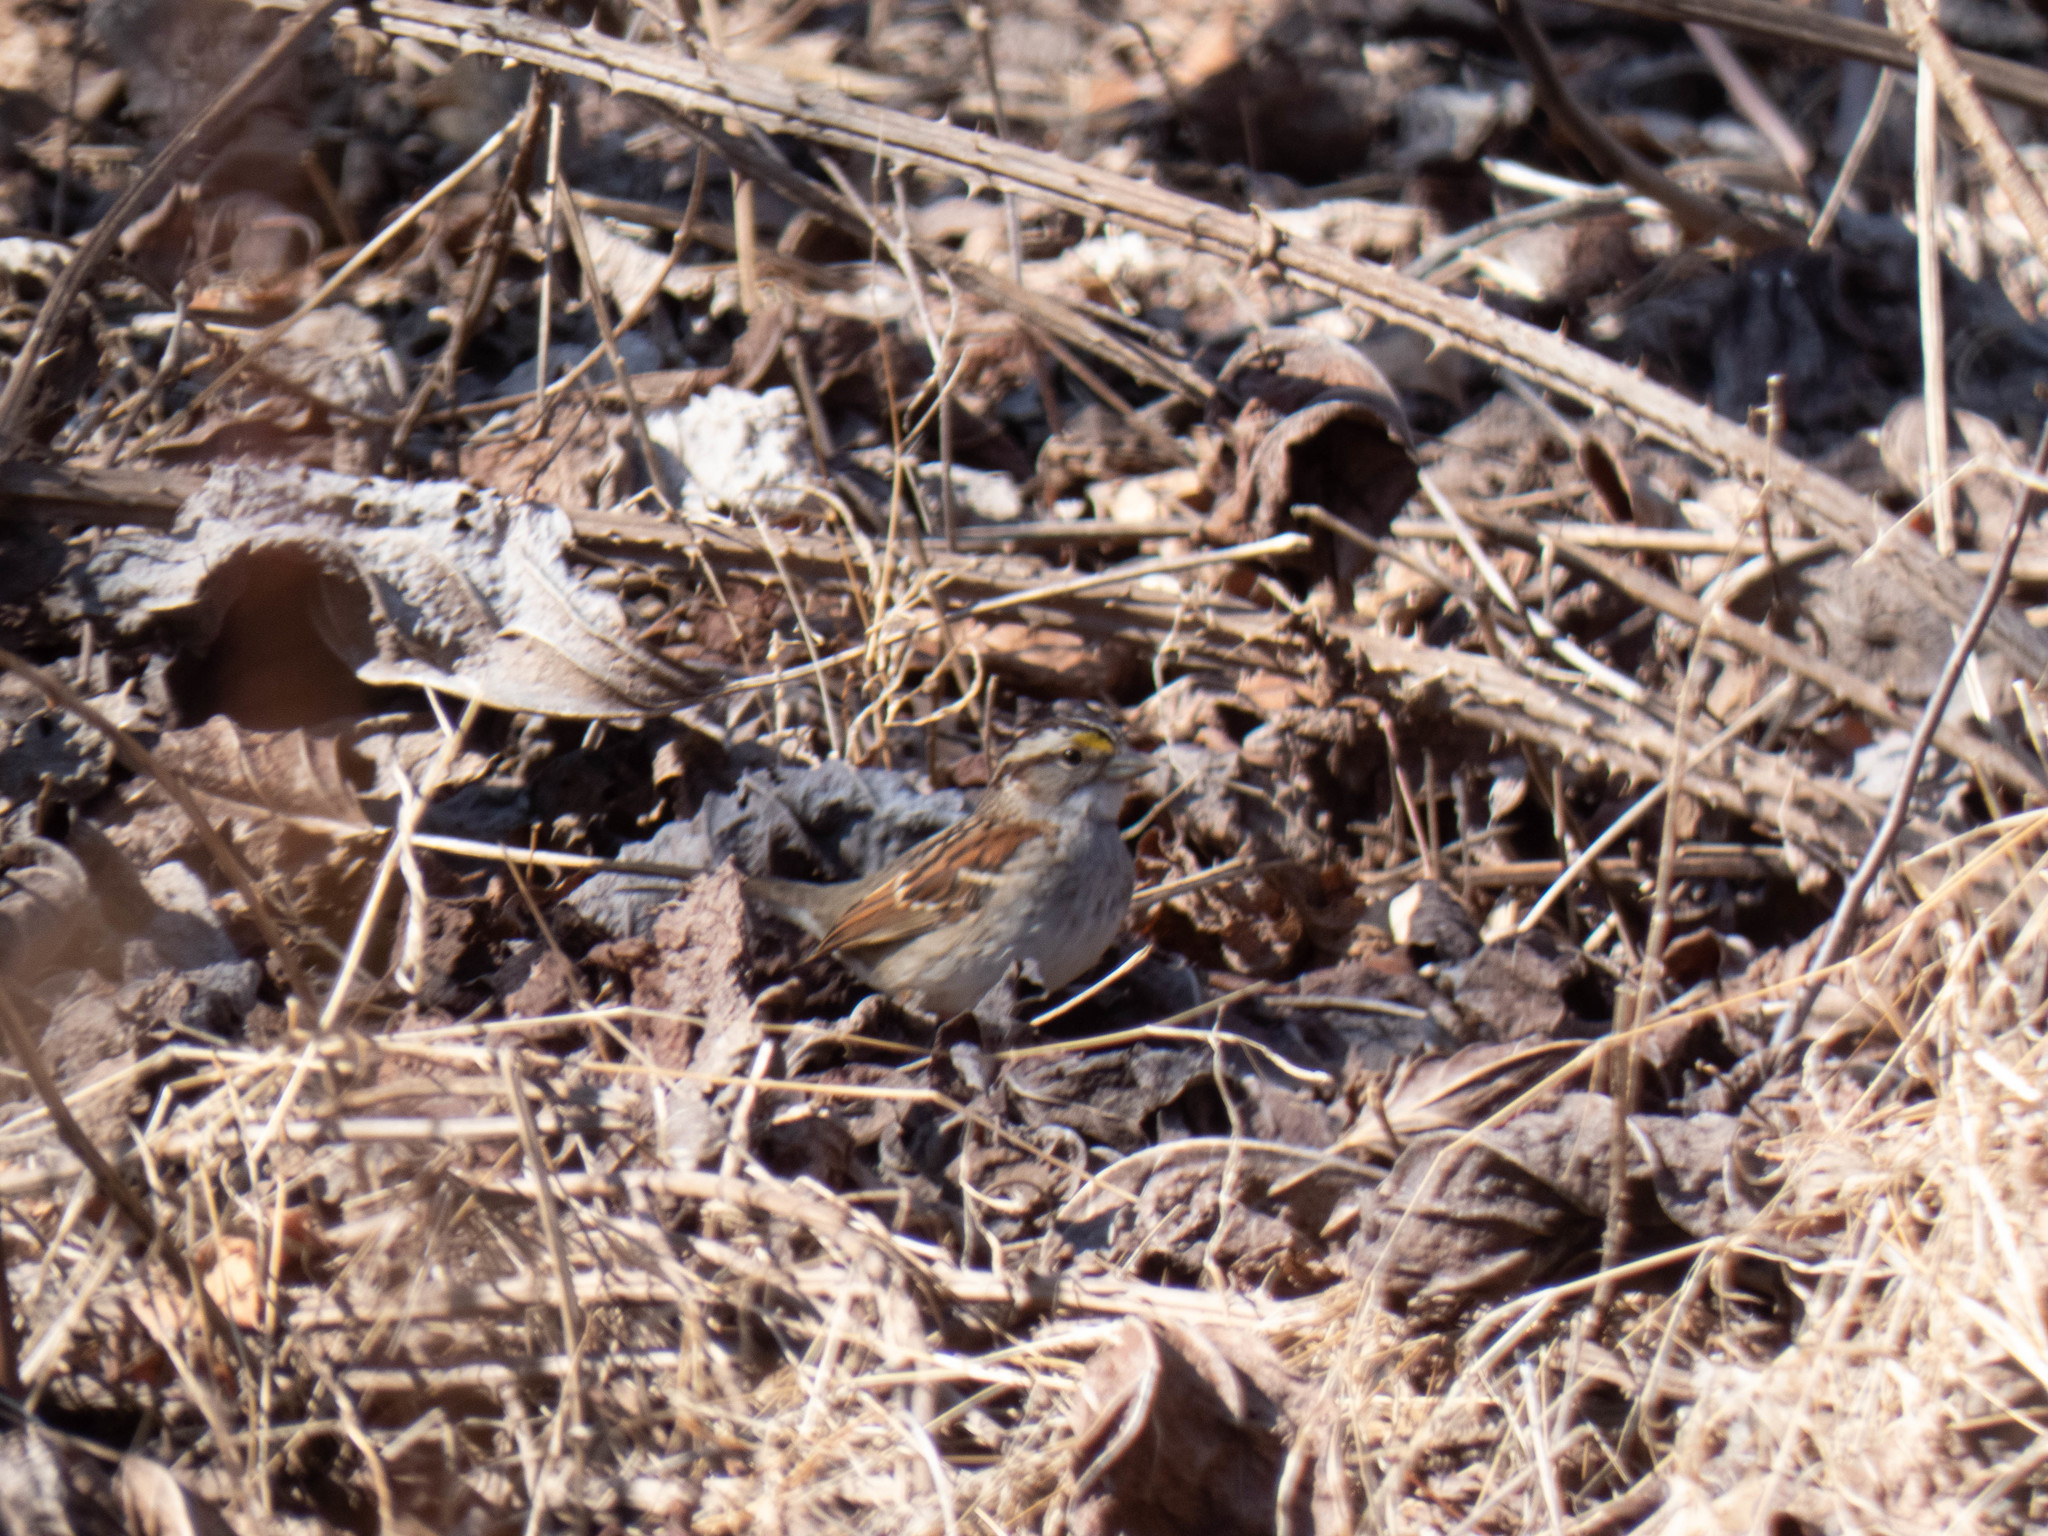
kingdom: Animalia
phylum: Chordata
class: Aves
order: Passeriformes
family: Passerellidae
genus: Zonotrichia
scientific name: Zonotrichia albicollis
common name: White-throated sparrow
